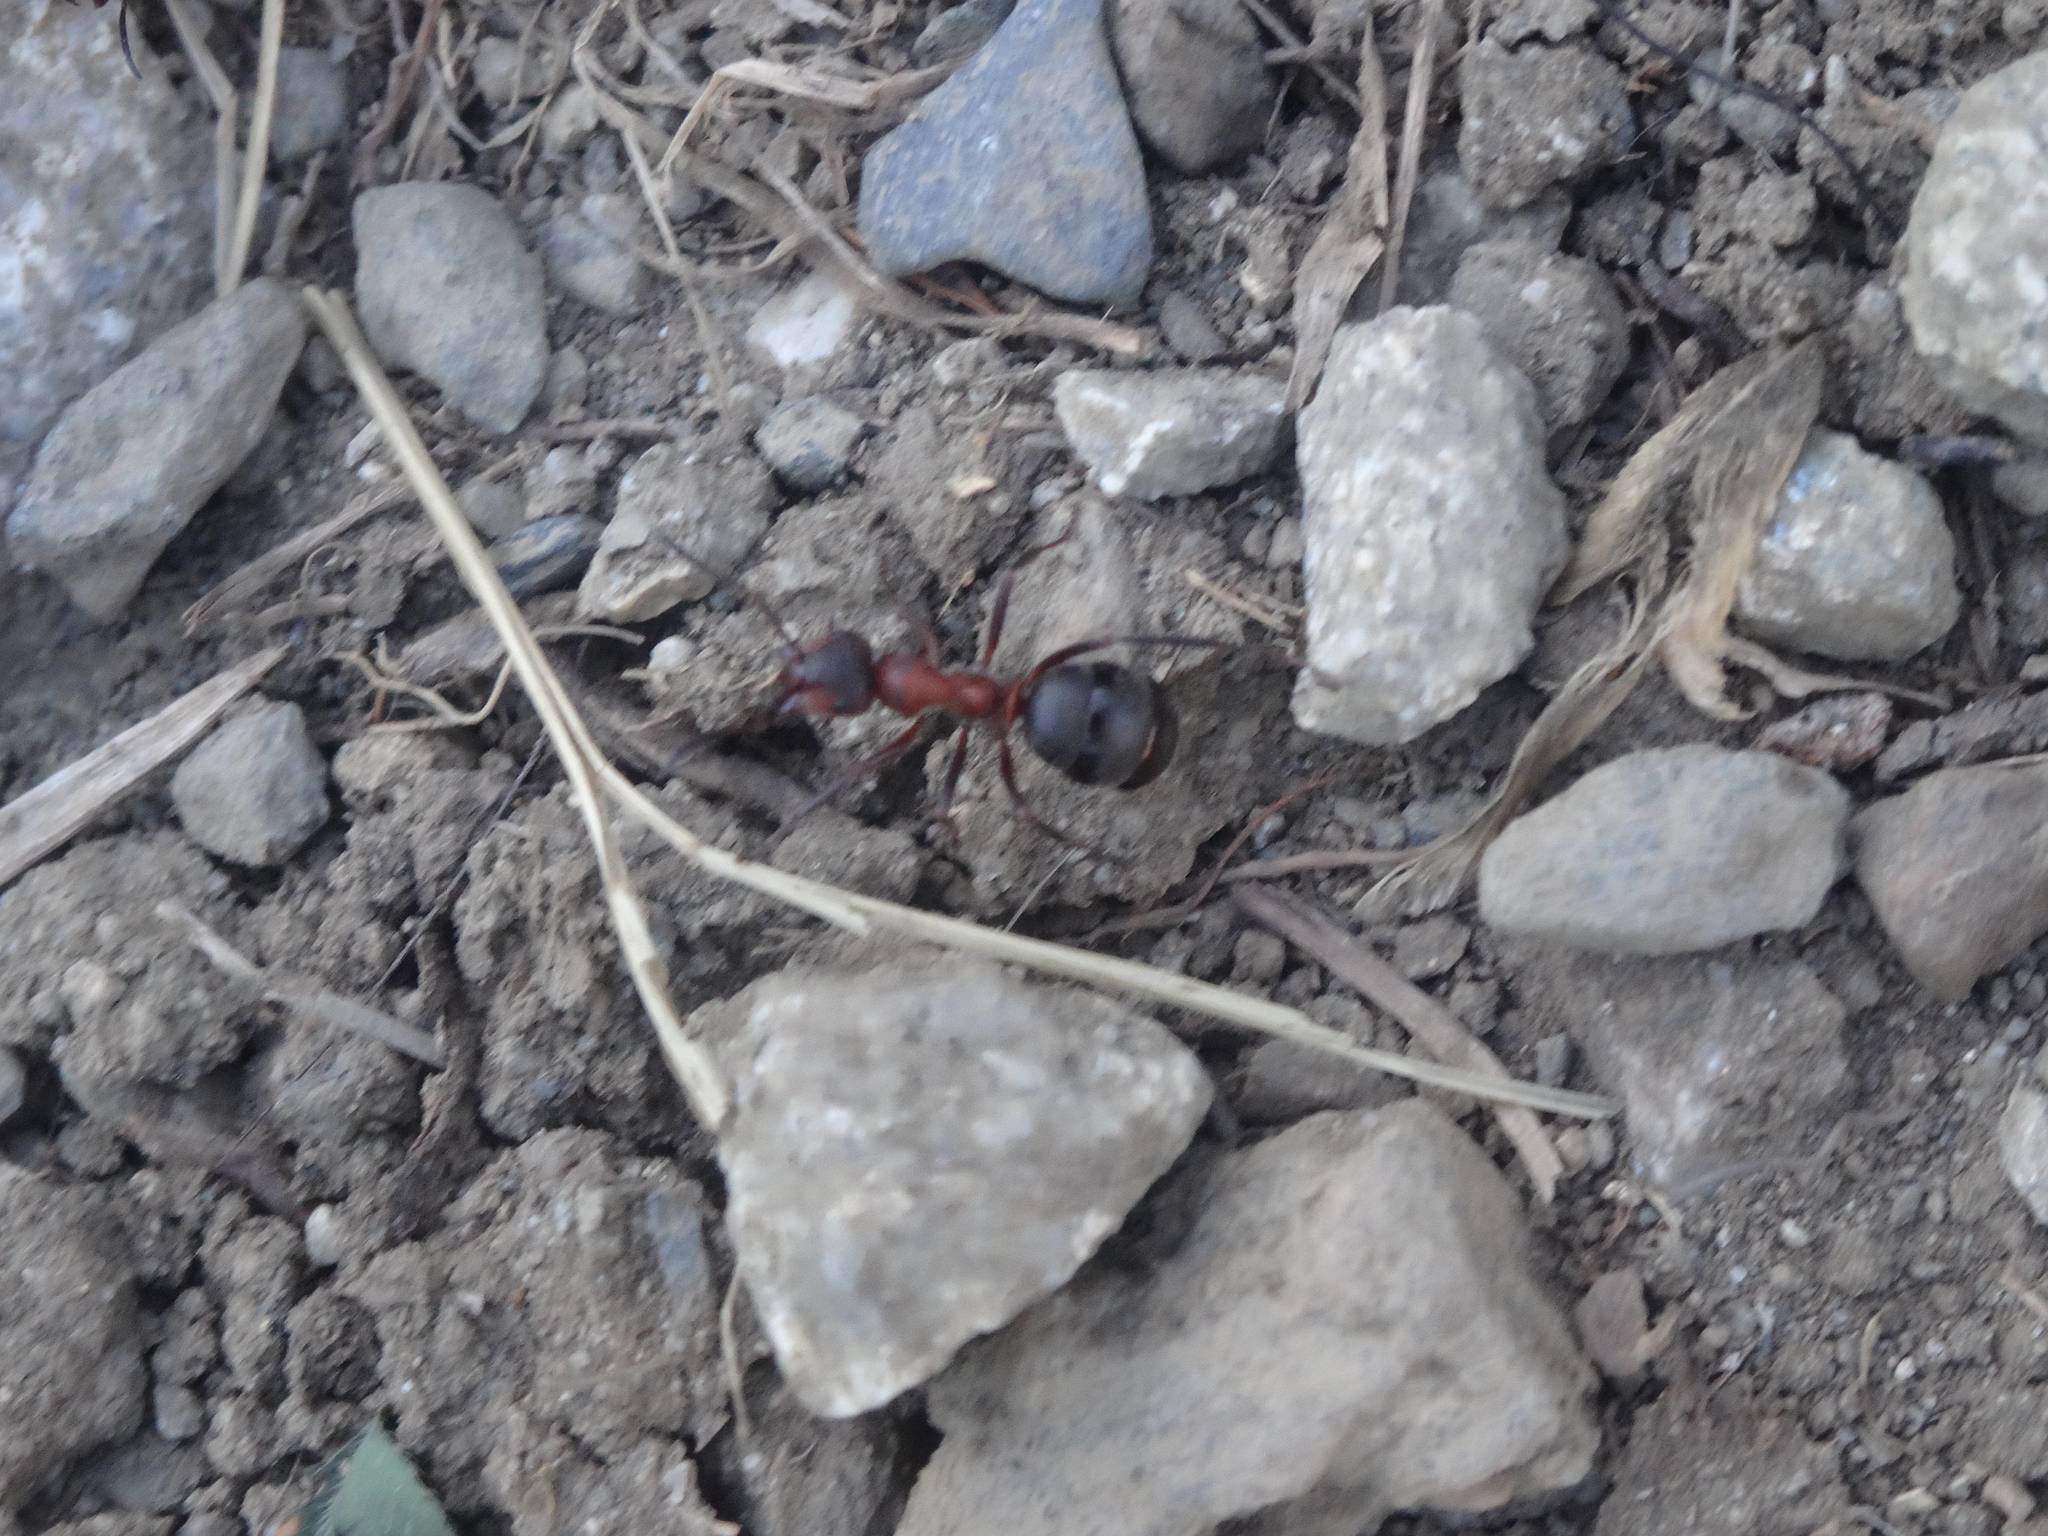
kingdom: Animalia
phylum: Arthropoda
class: Insecta
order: Hymenoptera
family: Formicidae
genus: Formica
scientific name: Formica rufa
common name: Red wood ant
